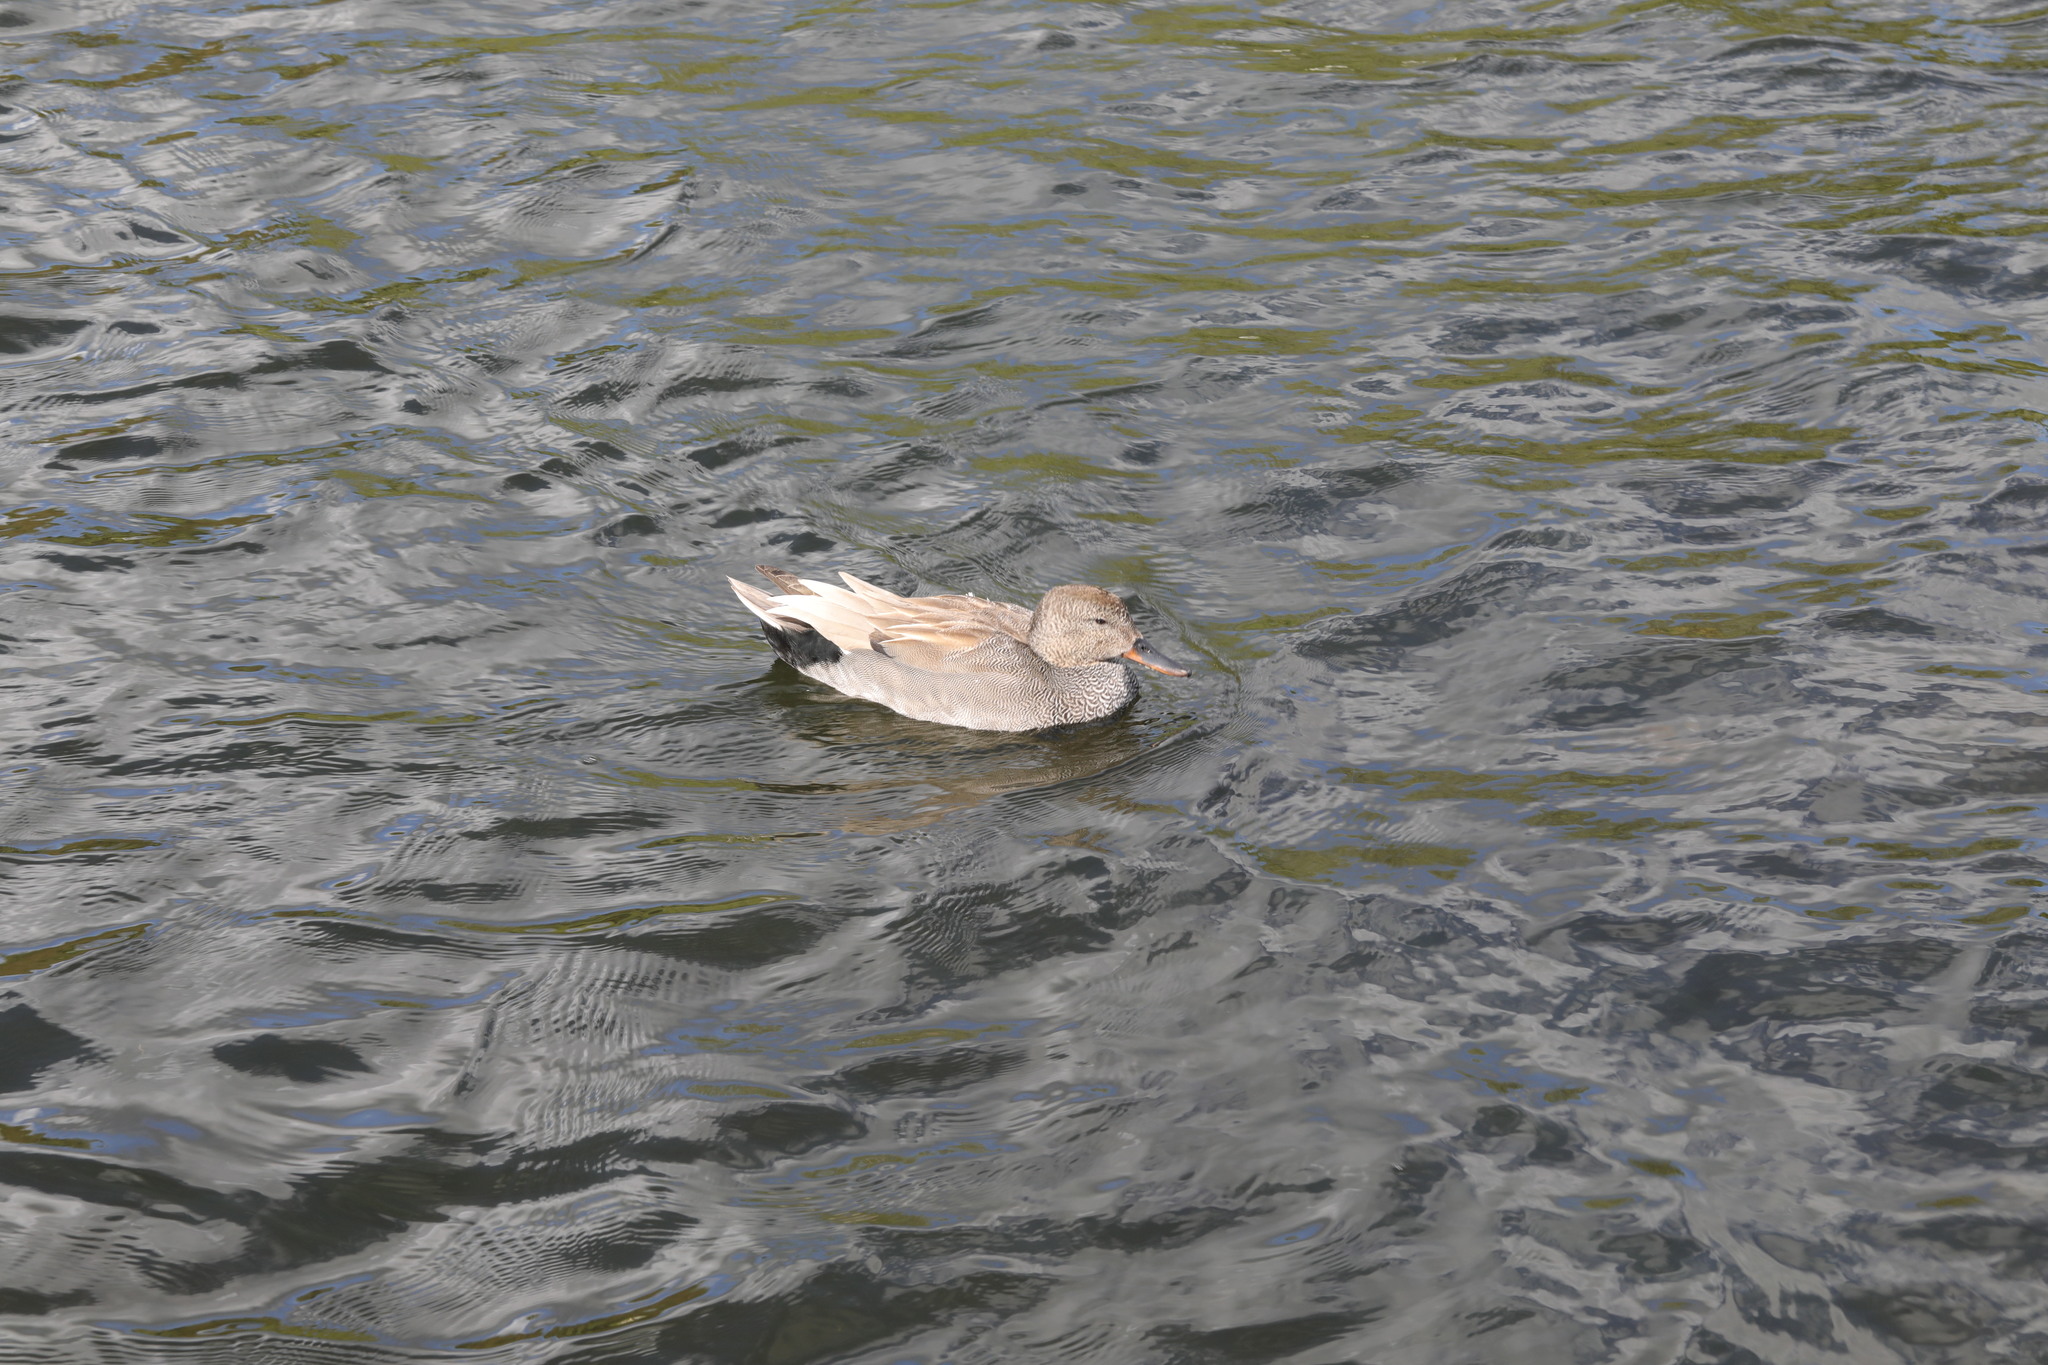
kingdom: Animalia
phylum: Chordata
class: Aves
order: Anseriformes
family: Anatidae
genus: Mareca
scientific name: Mareca strepera
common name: Gadwall
